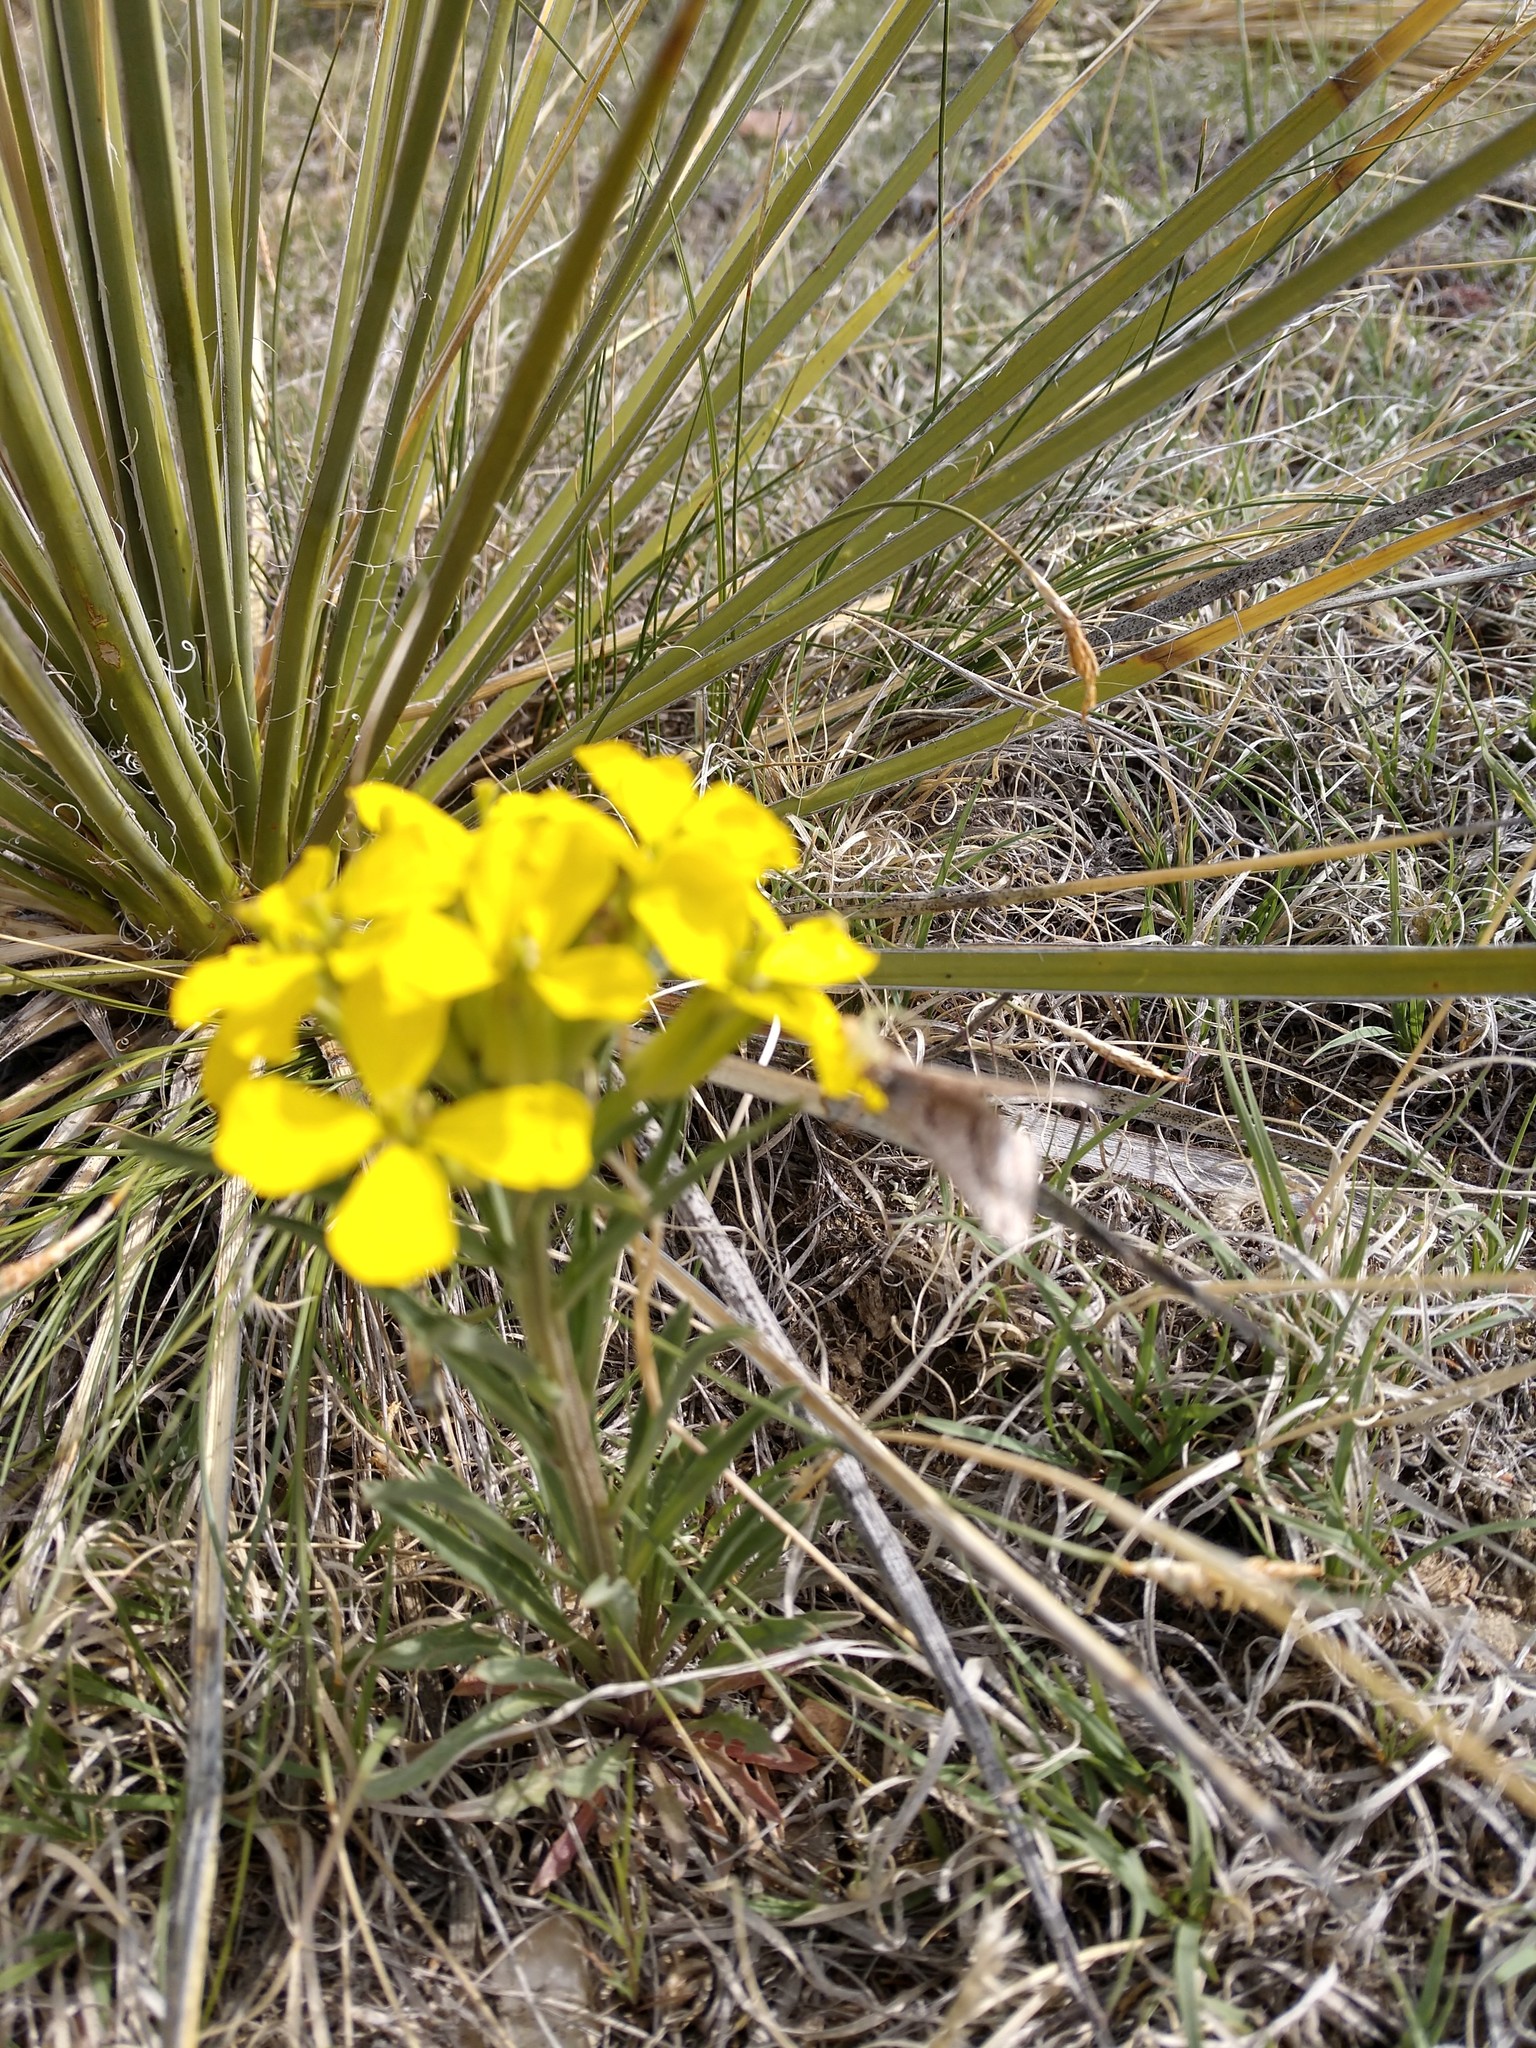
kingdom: Plantae
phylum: Tracheophyta
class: Magnoliopsida
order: Brassicales
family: Brassicaceae
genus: Erysimum
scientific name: Erysimum capitatum
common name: Western wallflower
